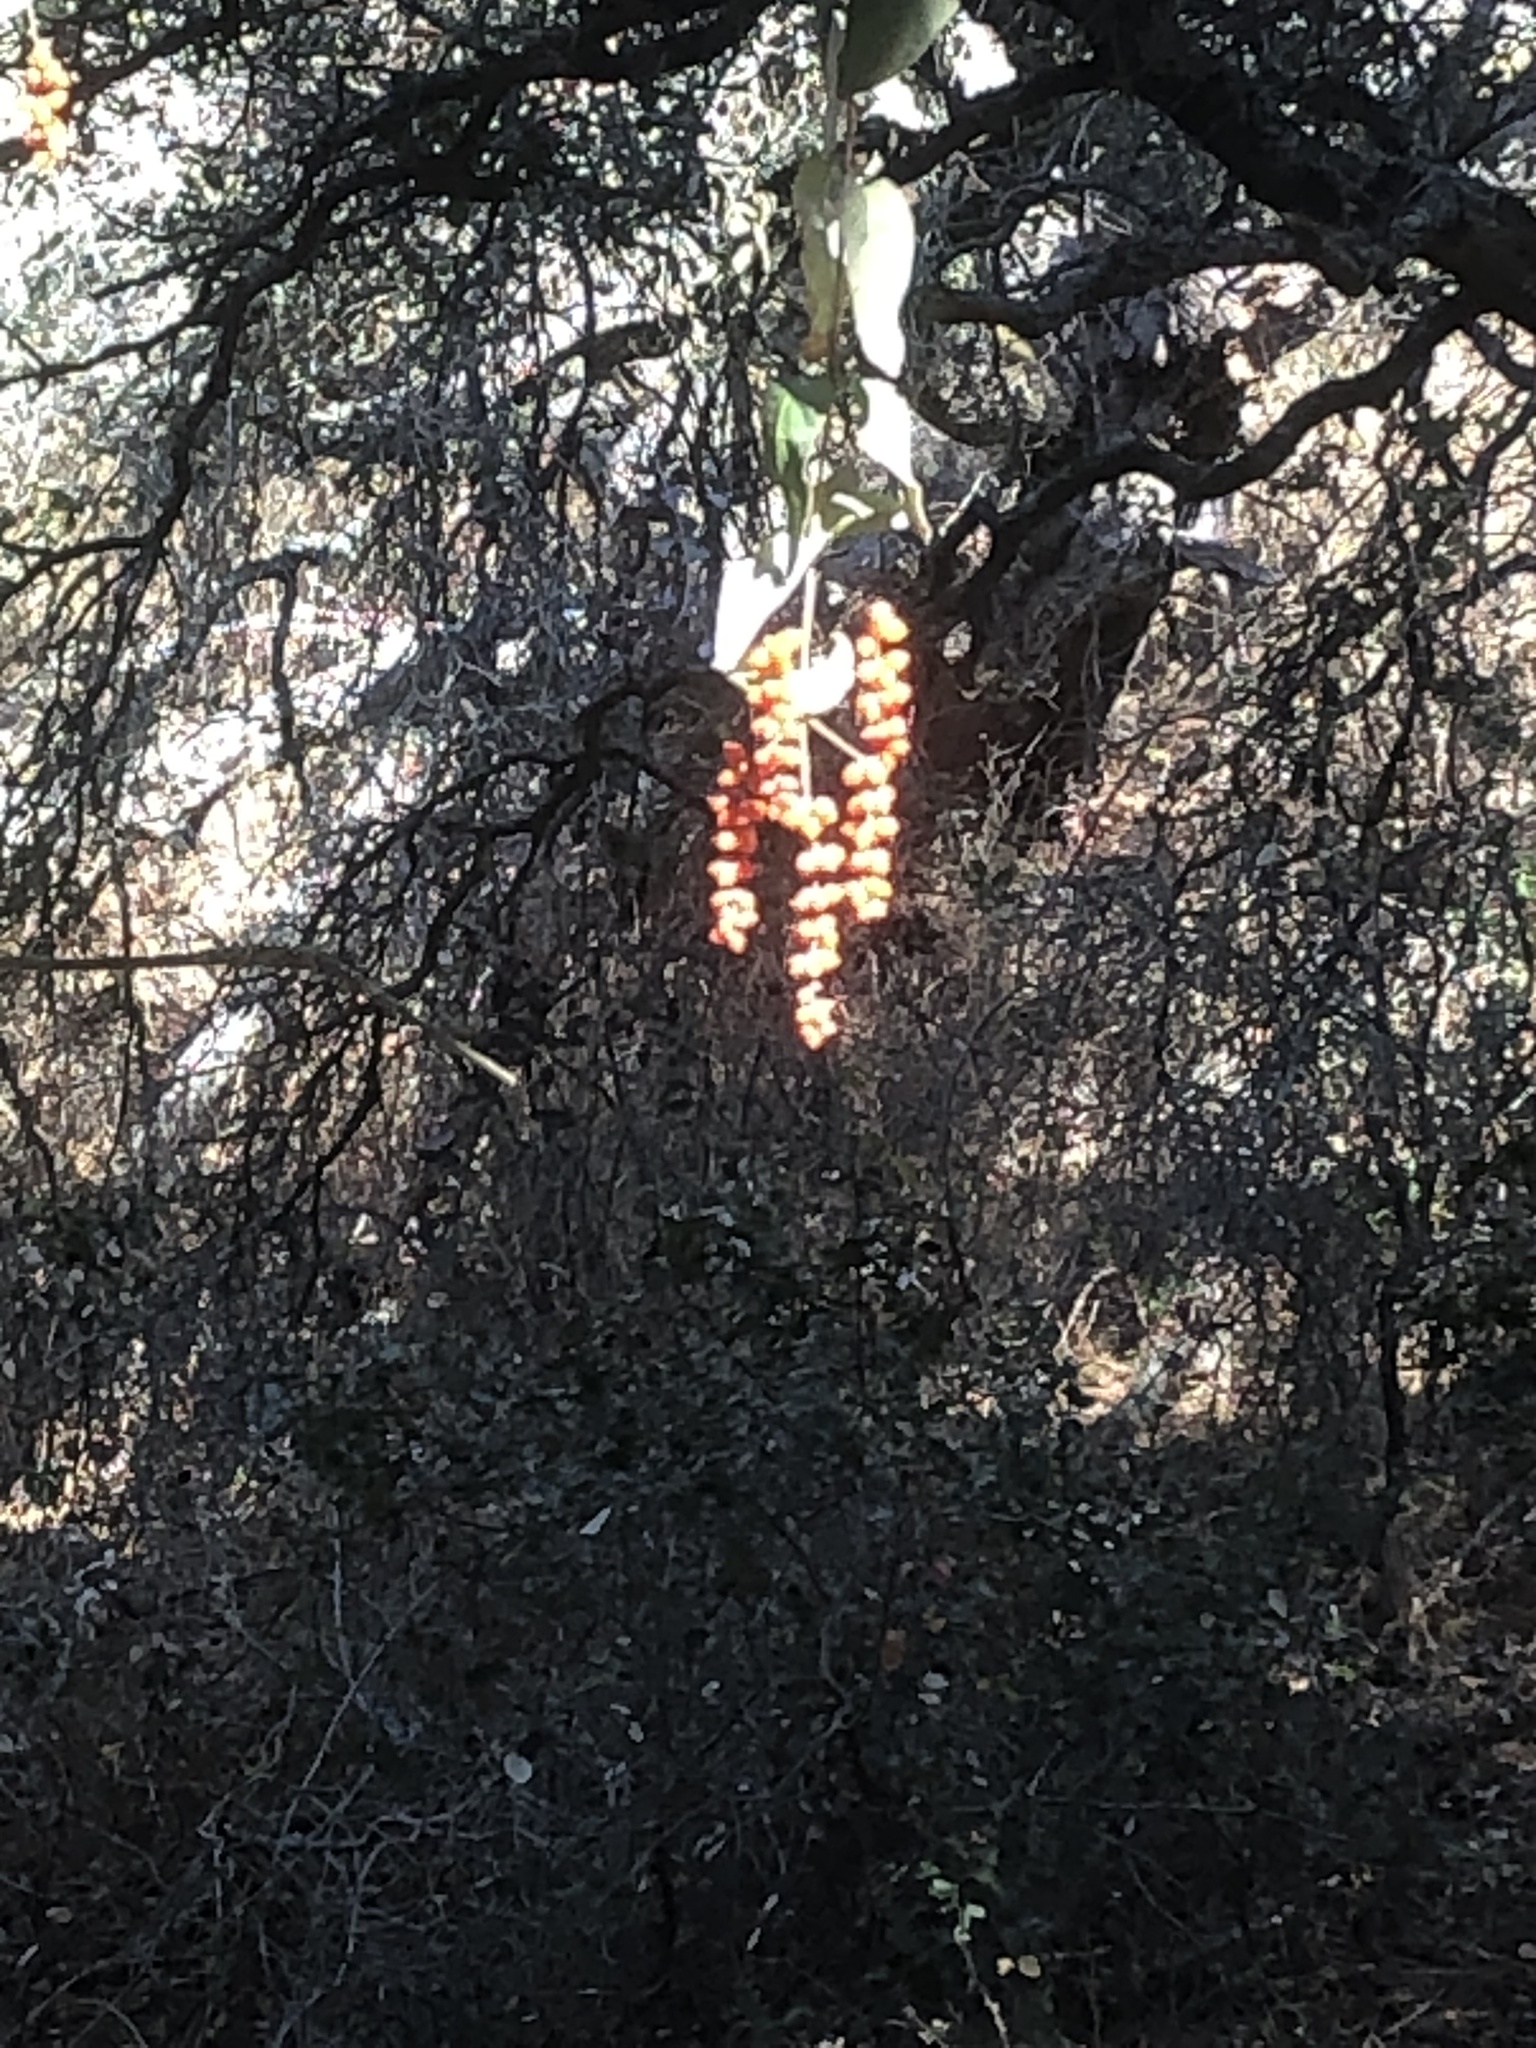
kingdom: Plantae
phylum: Tracheophyta
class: Magnoliopsida
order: Dipsacales
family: Caprifoliaceae
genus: Lonicera
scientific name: Lonicera hispidula
